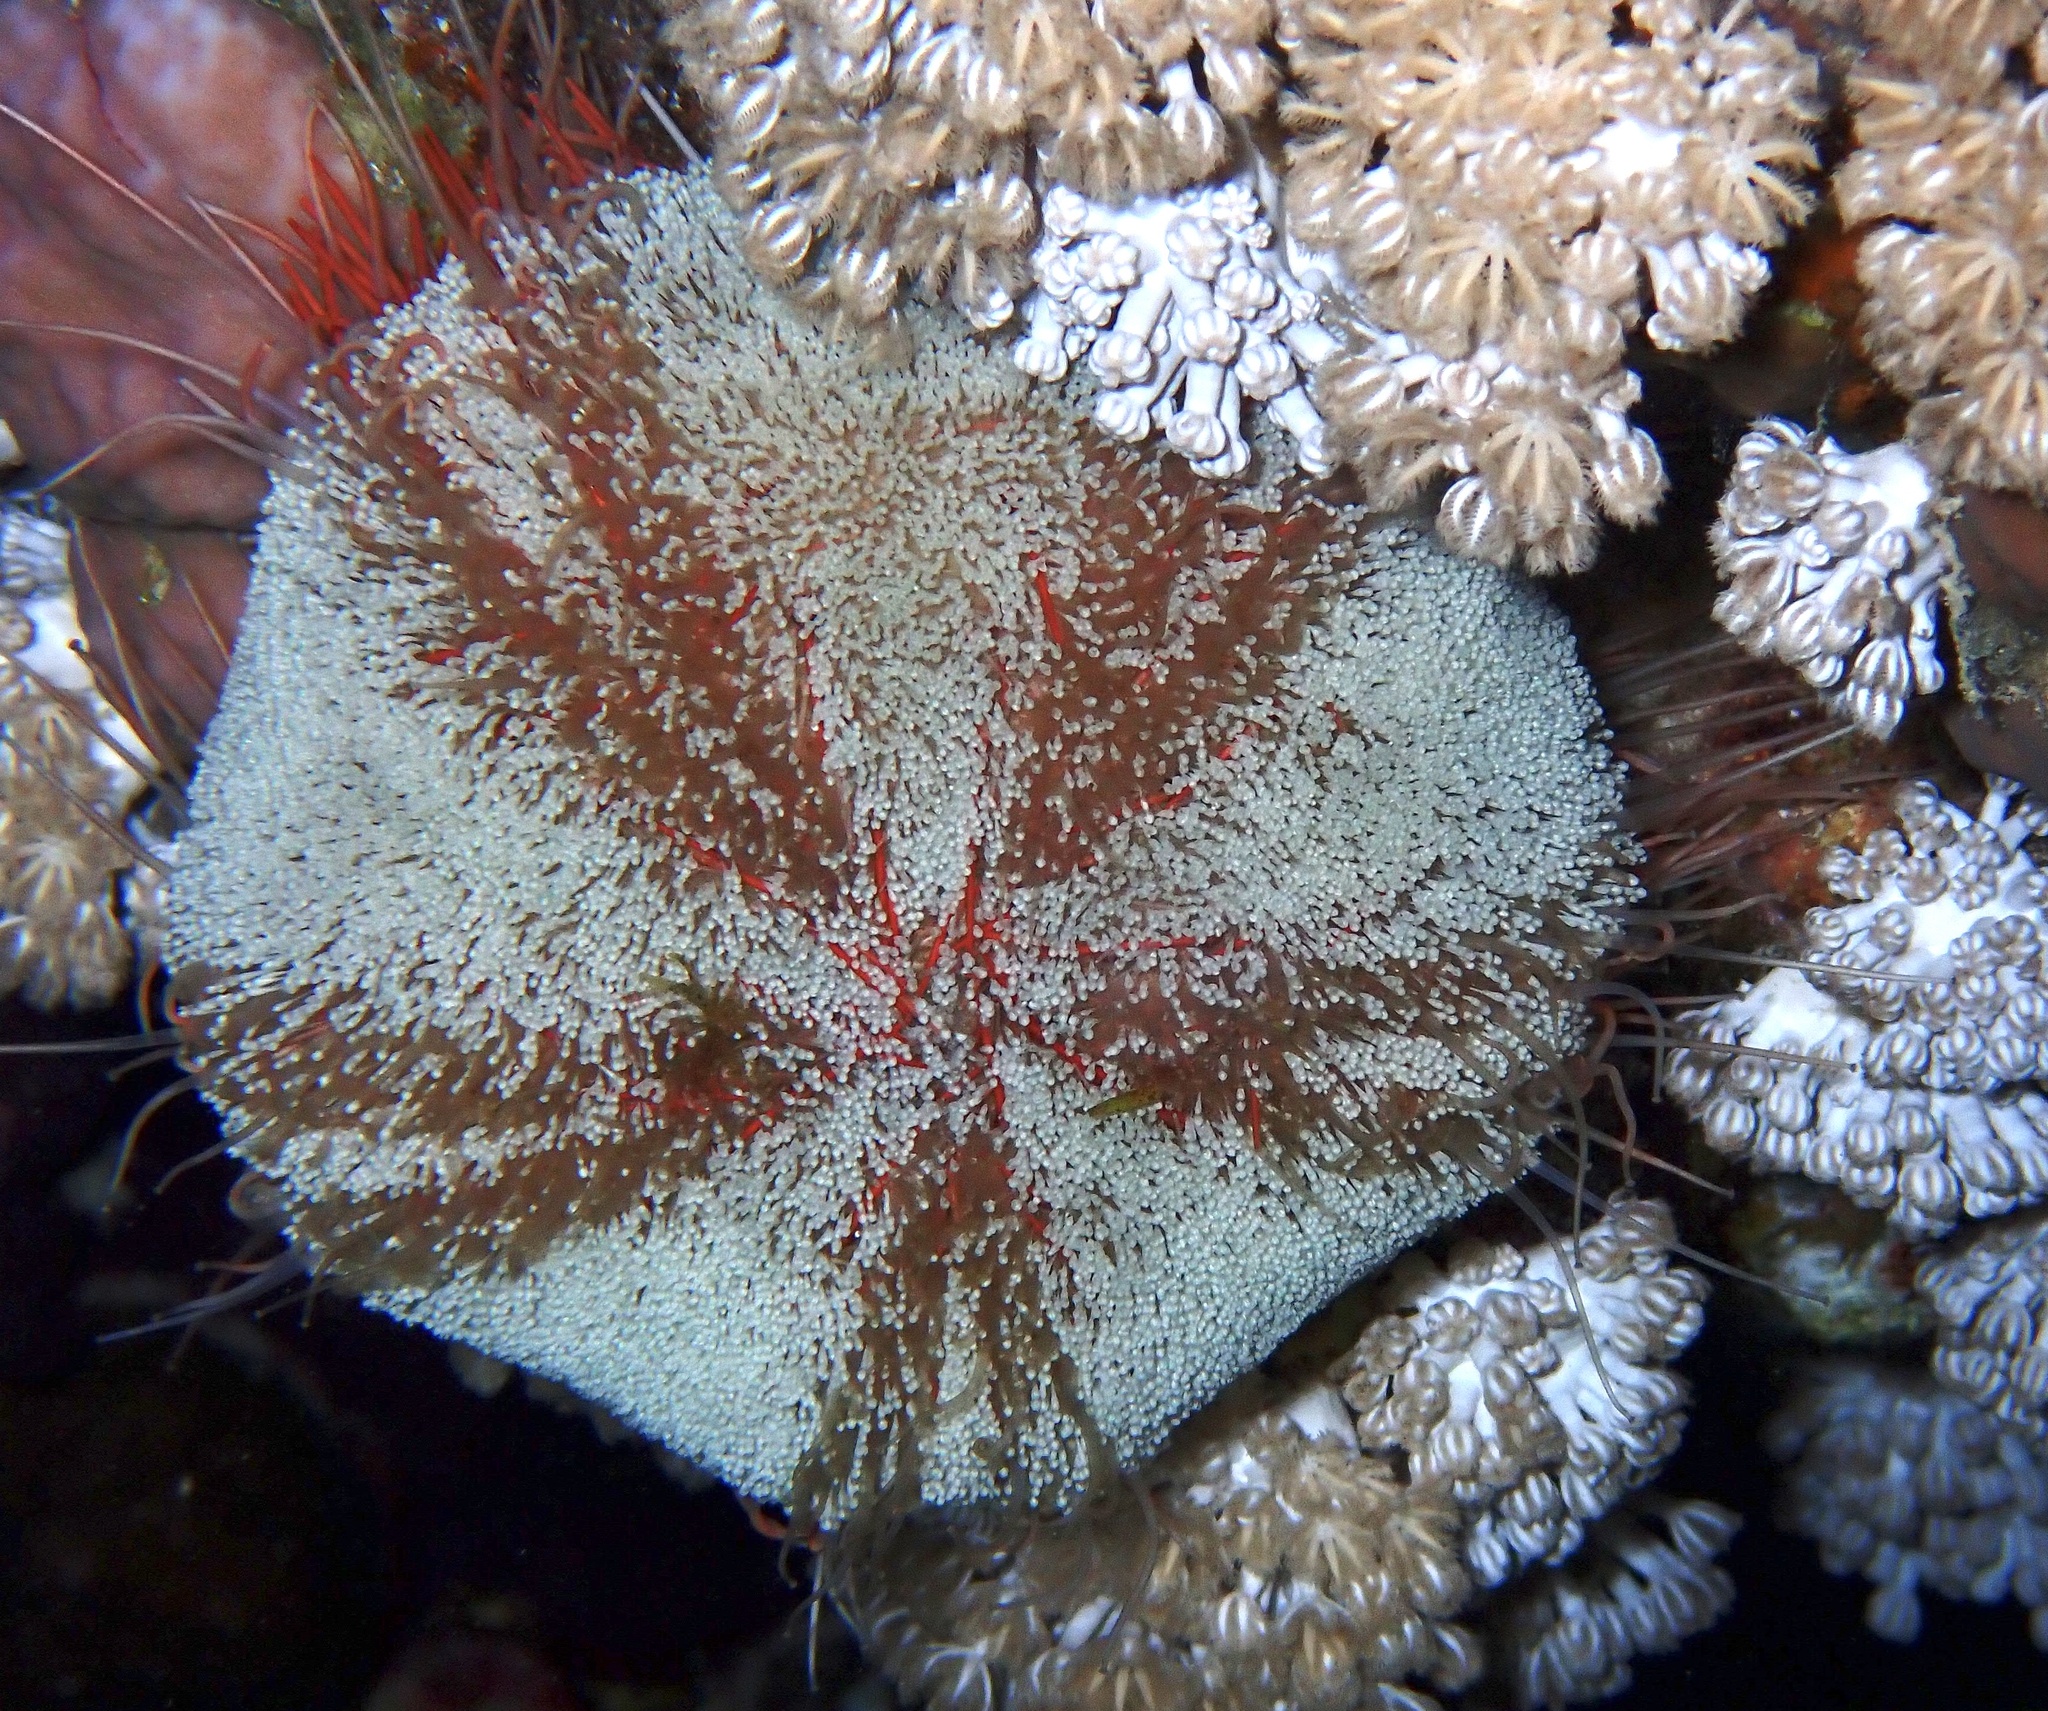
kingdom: Animalia
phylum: Echinodermata
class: Echinoidea
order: Camarodonta
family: Toxopneustidae
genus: Tripneustes
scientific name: Tripneustes gratilla
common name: Bischofsmützenseeigel
